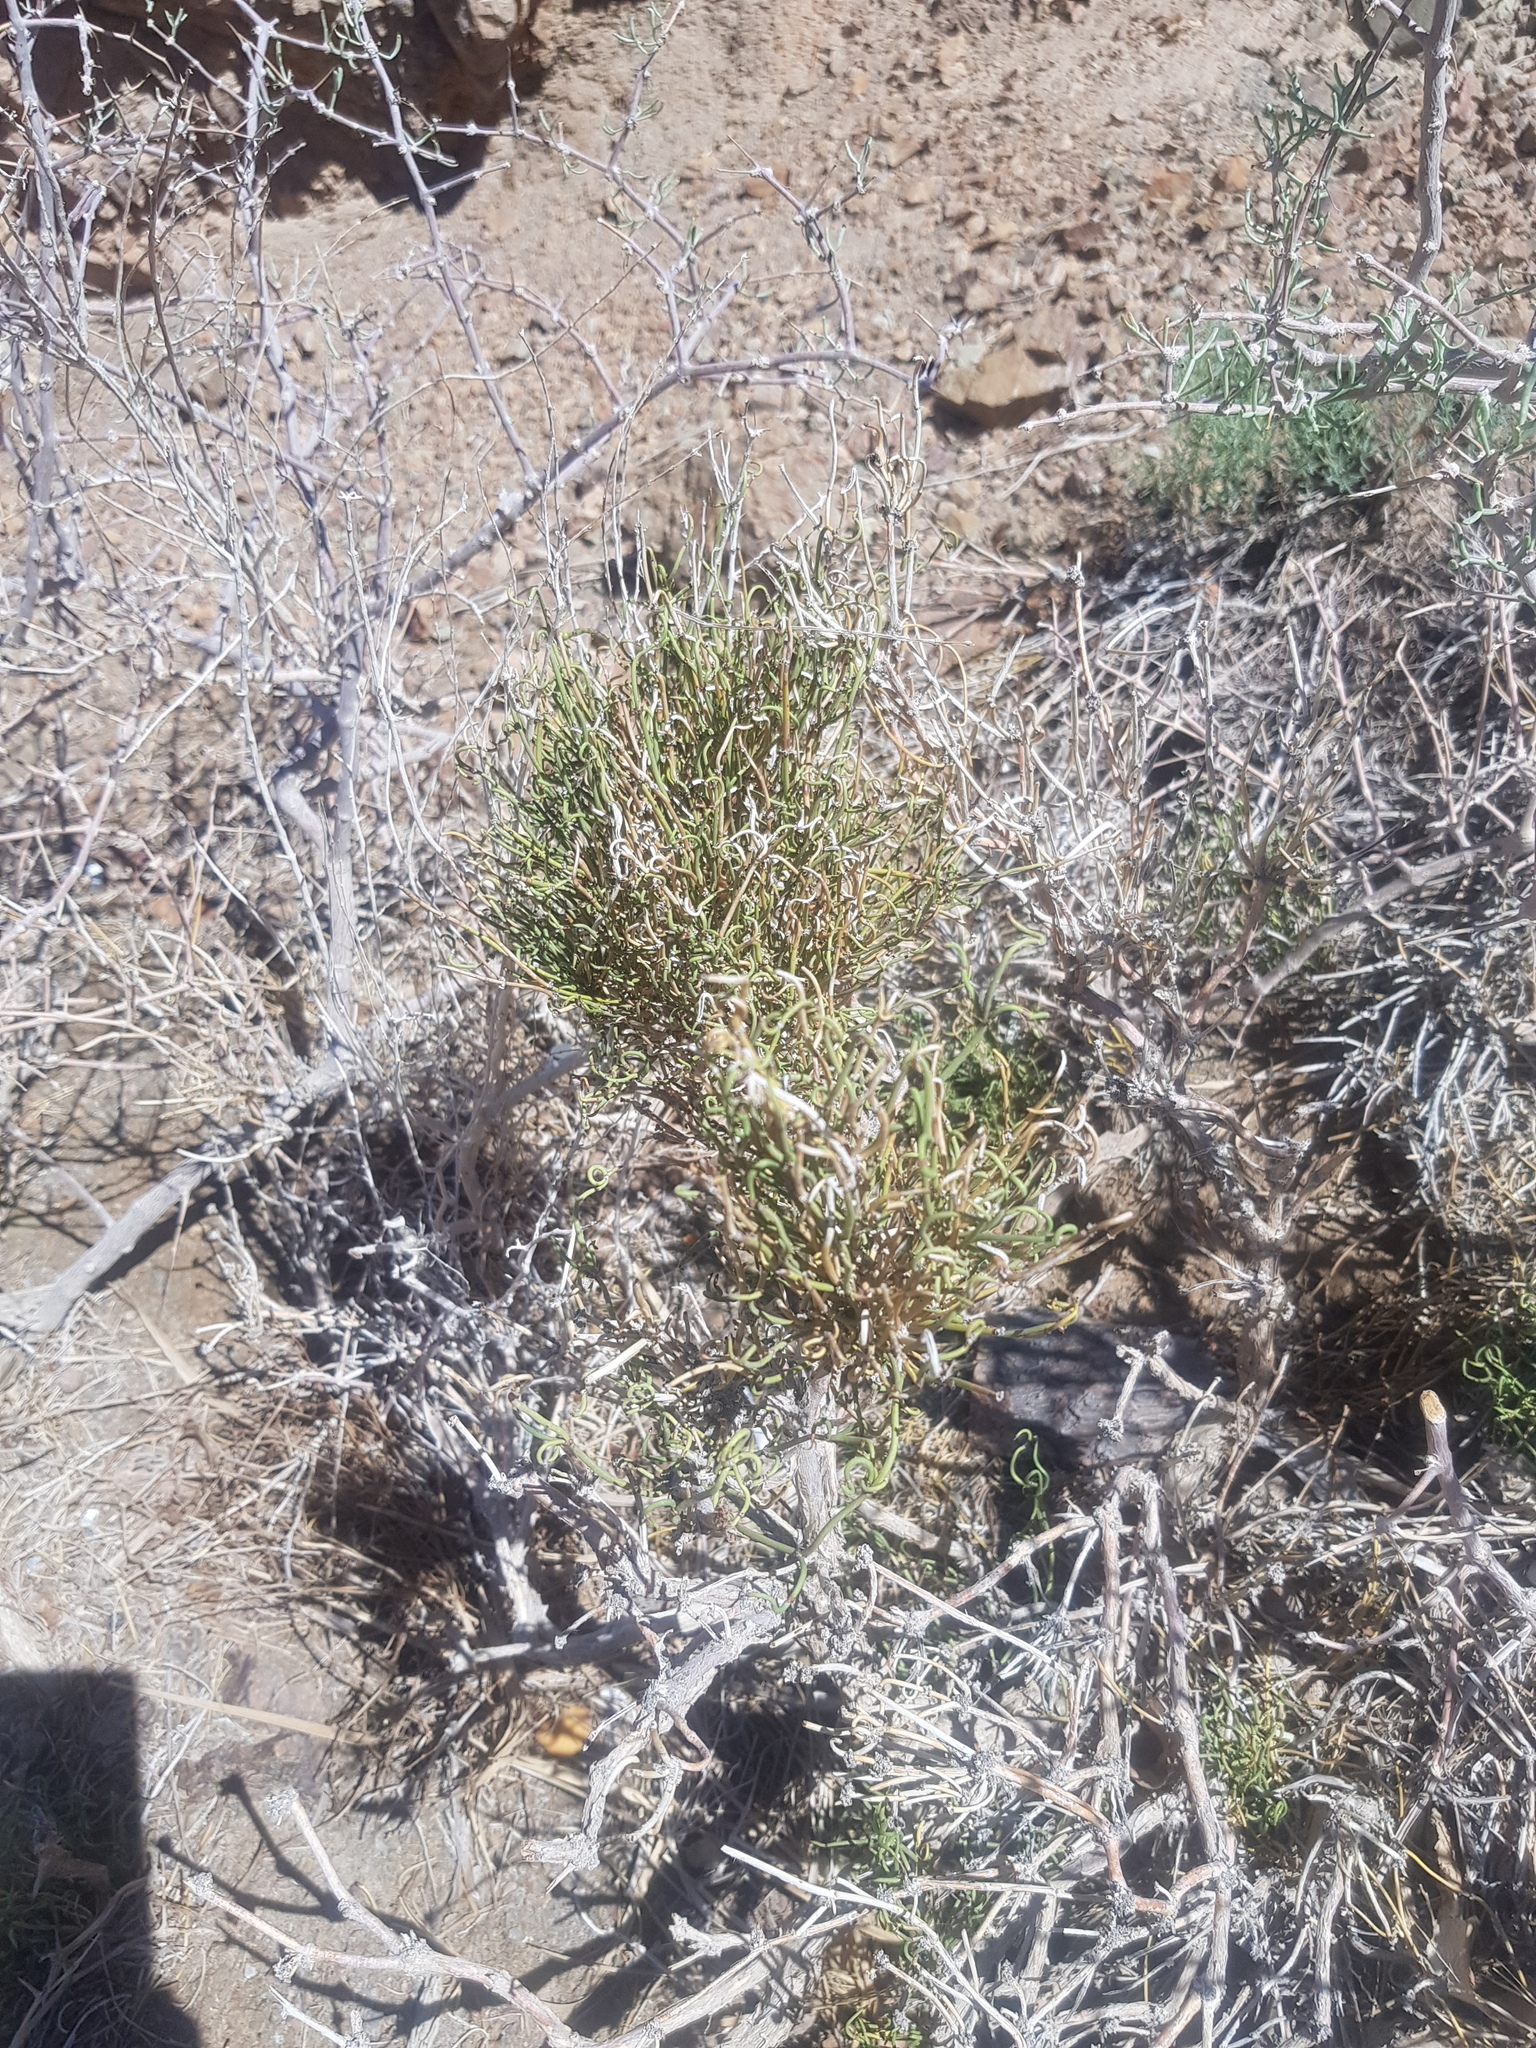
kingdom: Plantae
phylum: Tracheophyta
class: Gnetopsida
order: Ephedrales
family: Ephedraceae
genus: Ephedra
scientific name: Ephedra przewalskii
